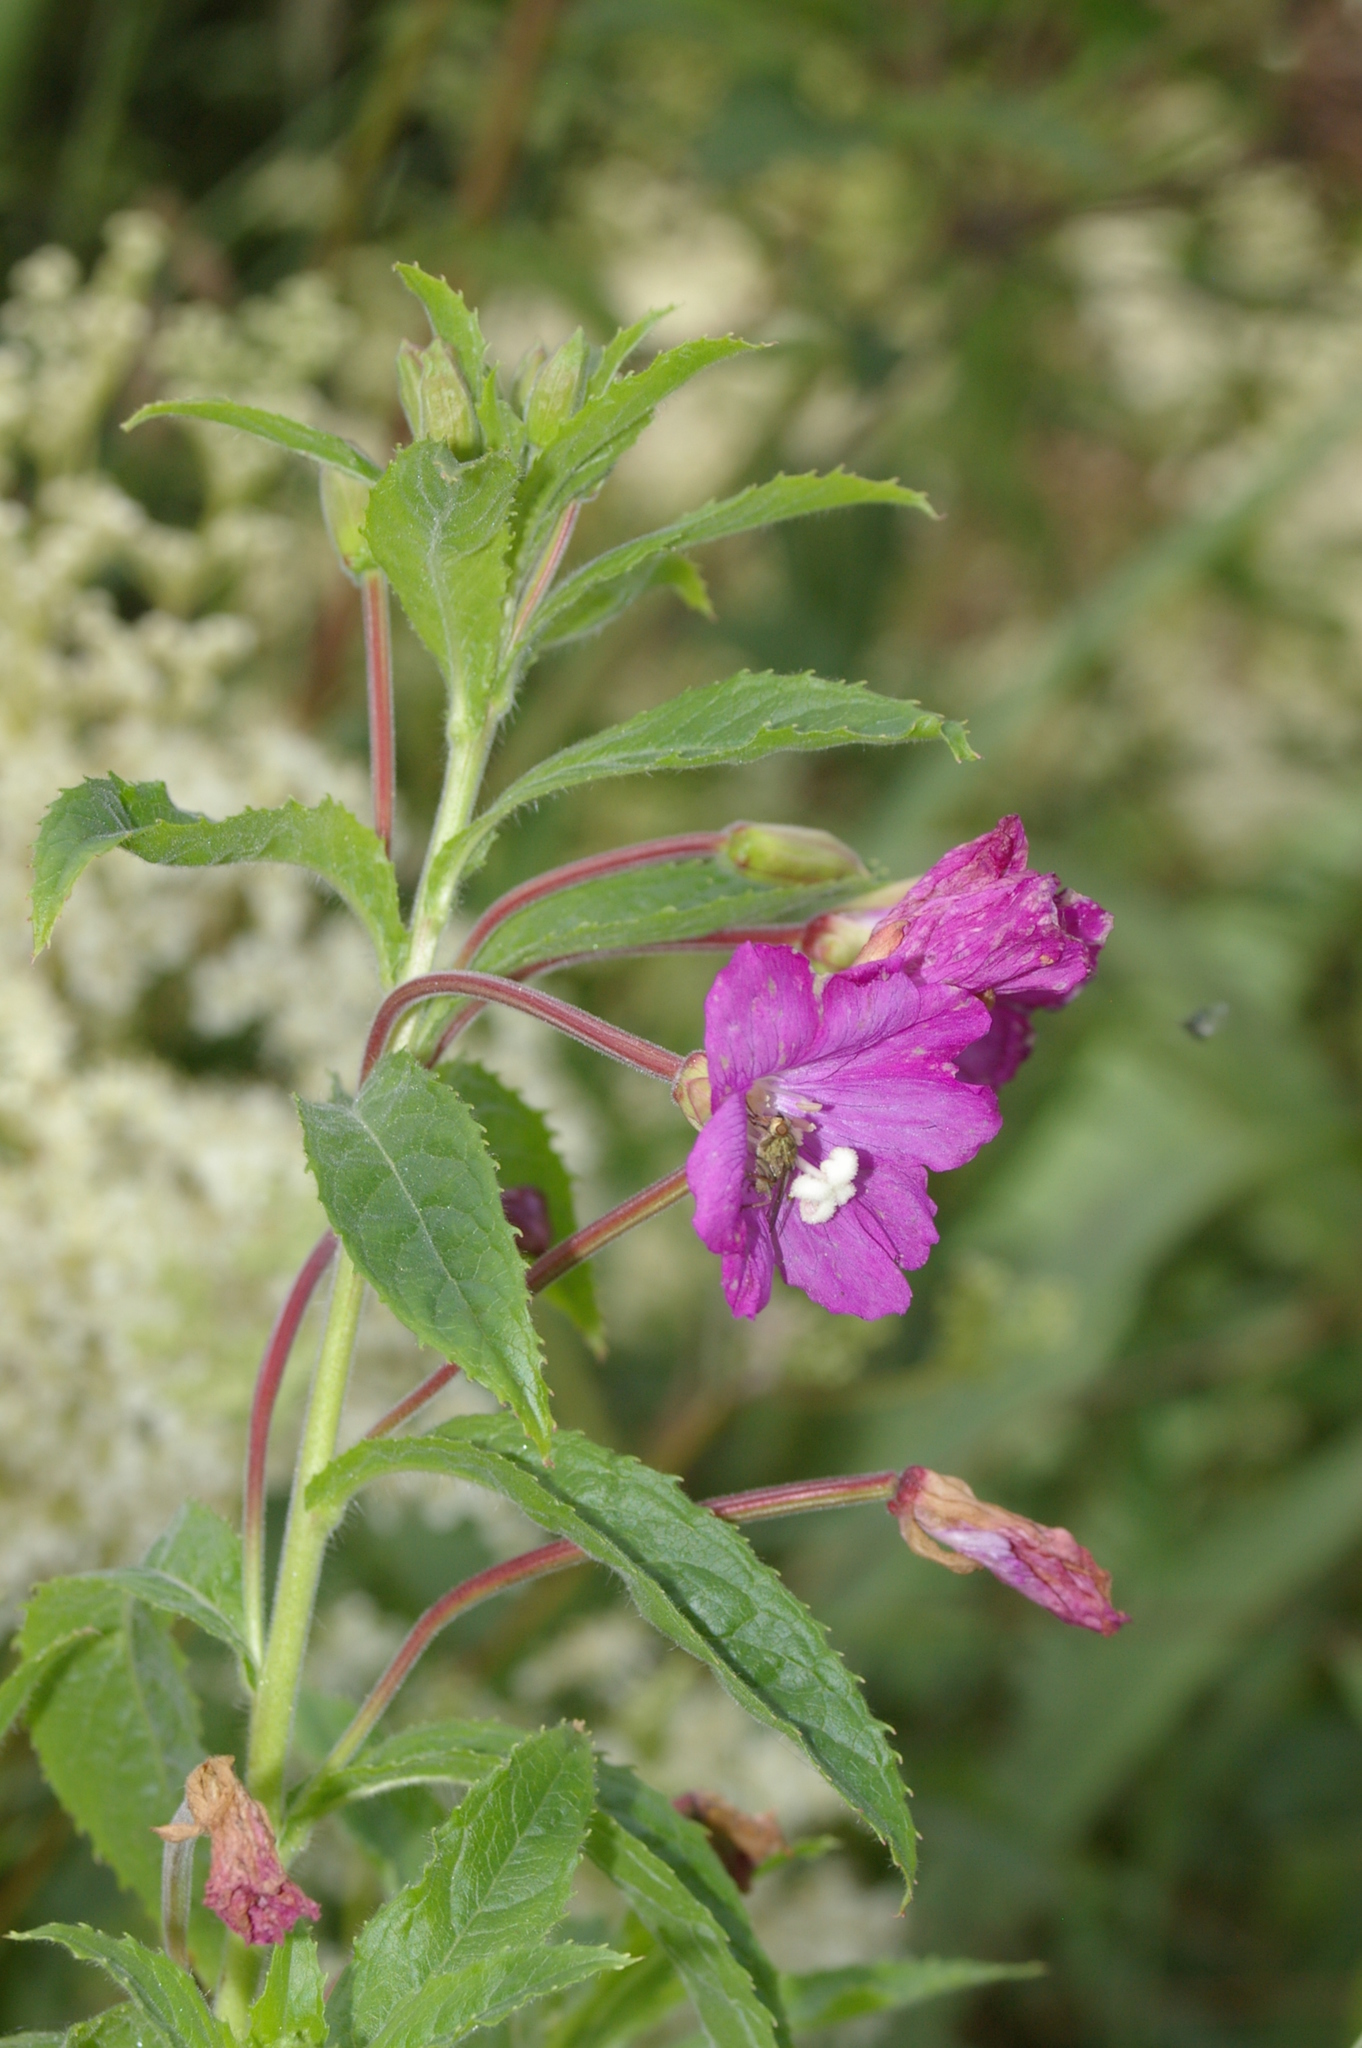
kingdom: Plantae
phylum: Tracheophyta
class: Magnoliopsida
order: Myrtales
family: Onagraceae
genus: Epilobium
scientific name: Epilobium hirsutum
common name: Great willowherb
